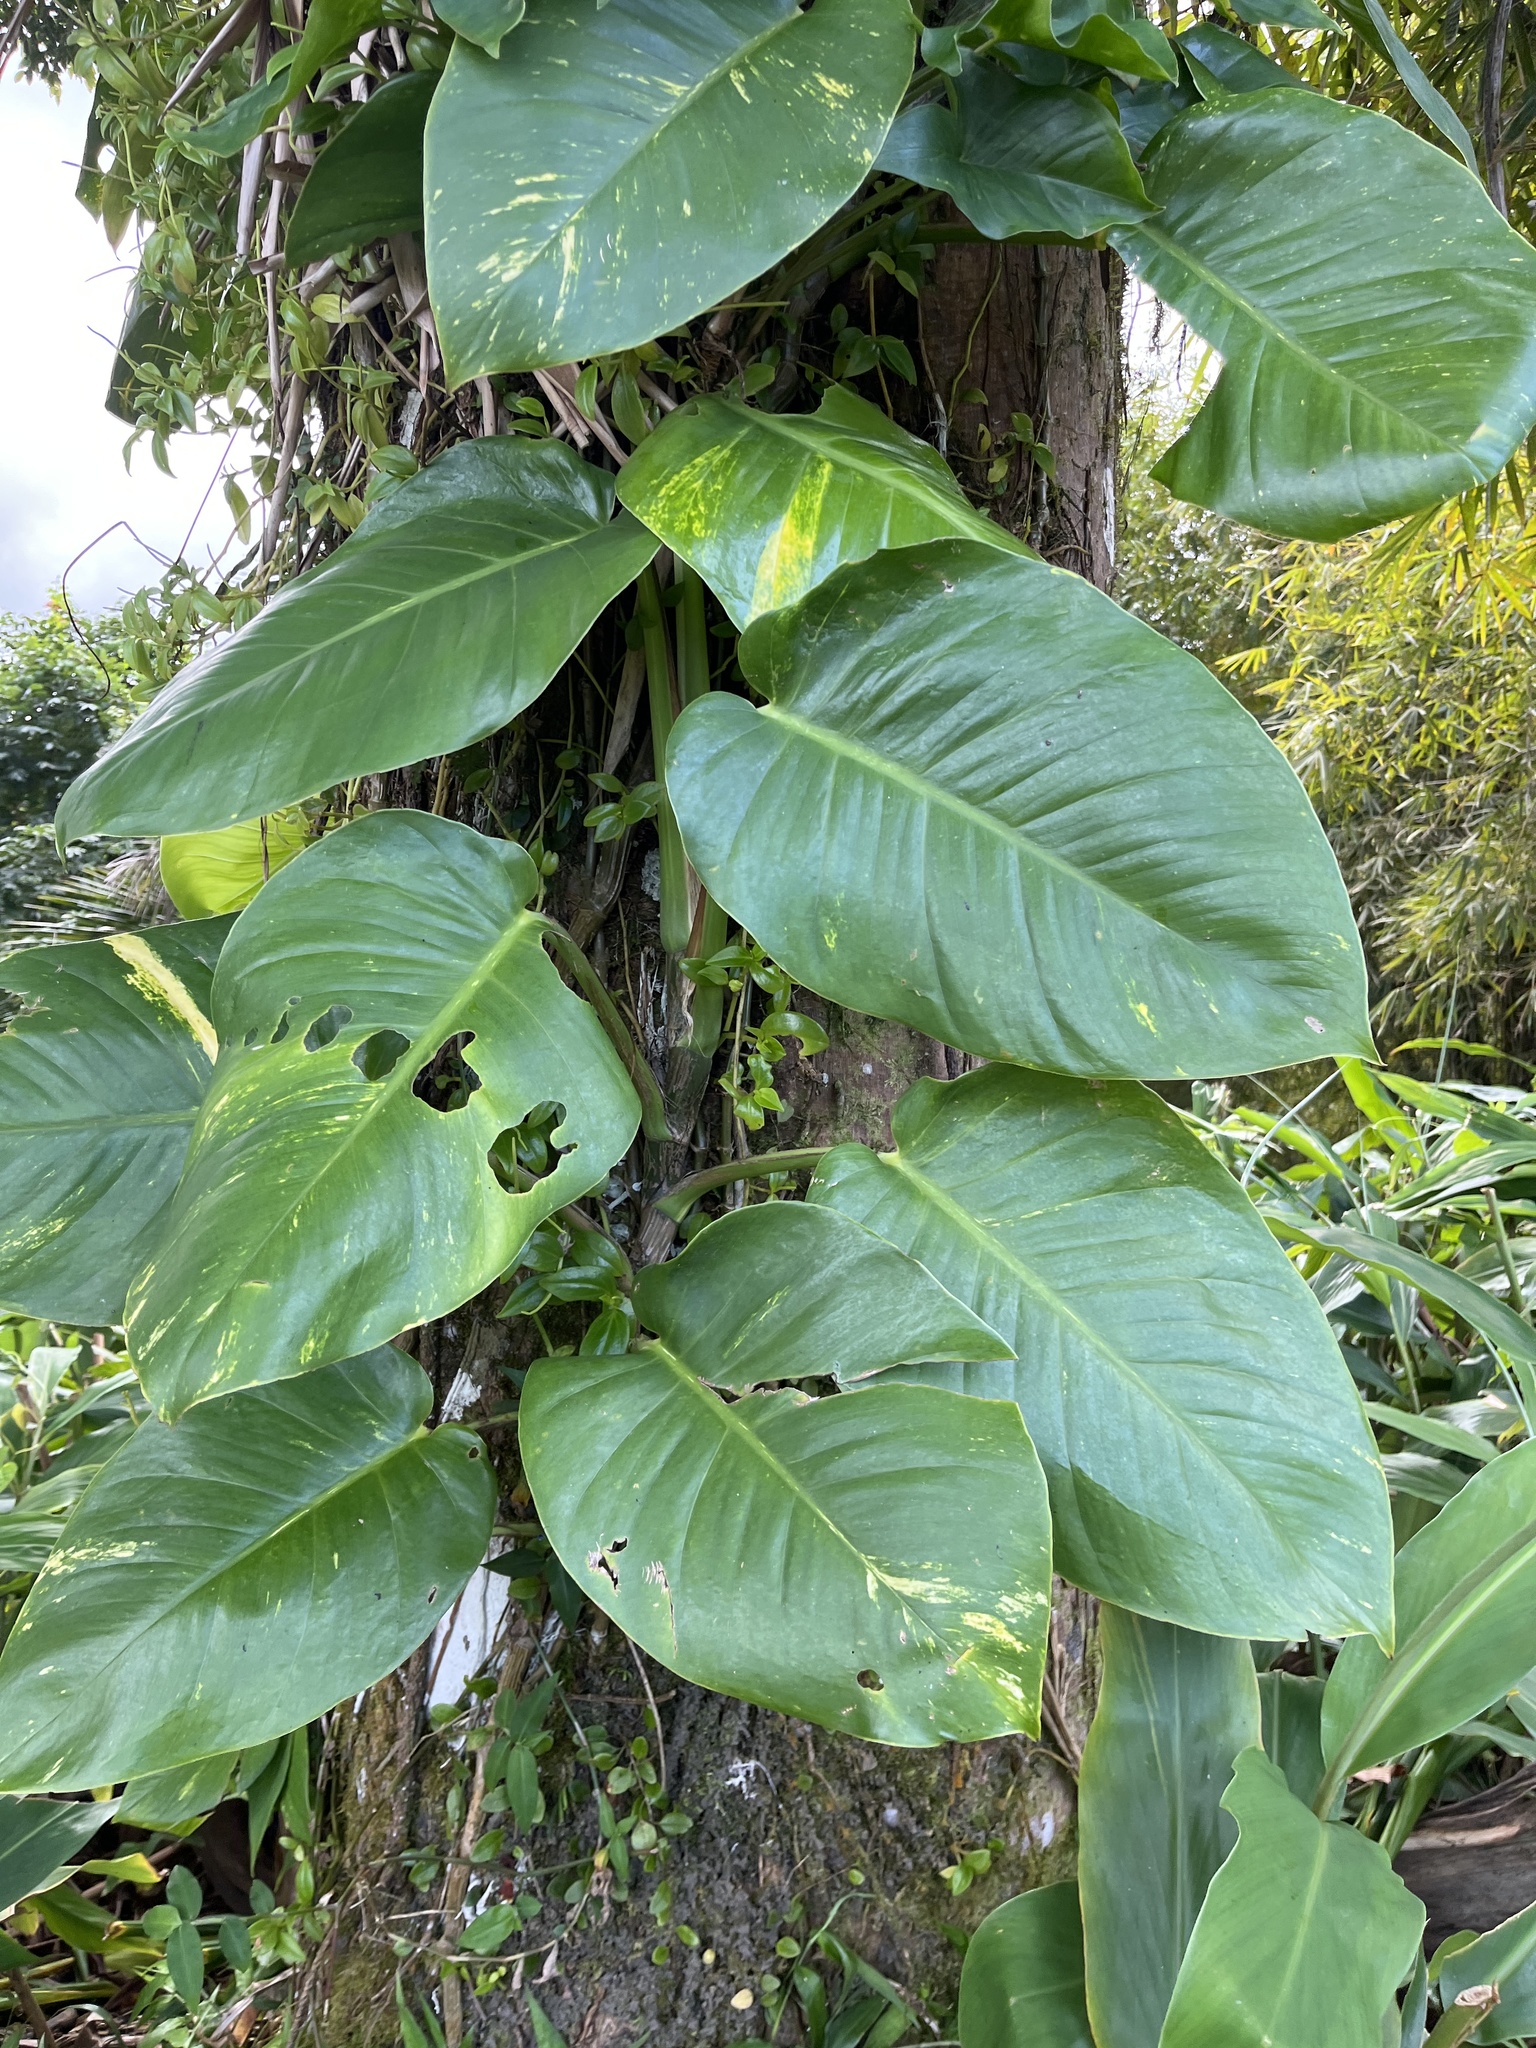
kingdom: Plantae
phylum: Tracheophyta
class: Liliopsida
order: Alismatales
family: Araceae
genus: Epipremnum
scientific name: Epipremnum aureum
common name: Golden hunter's-robe
